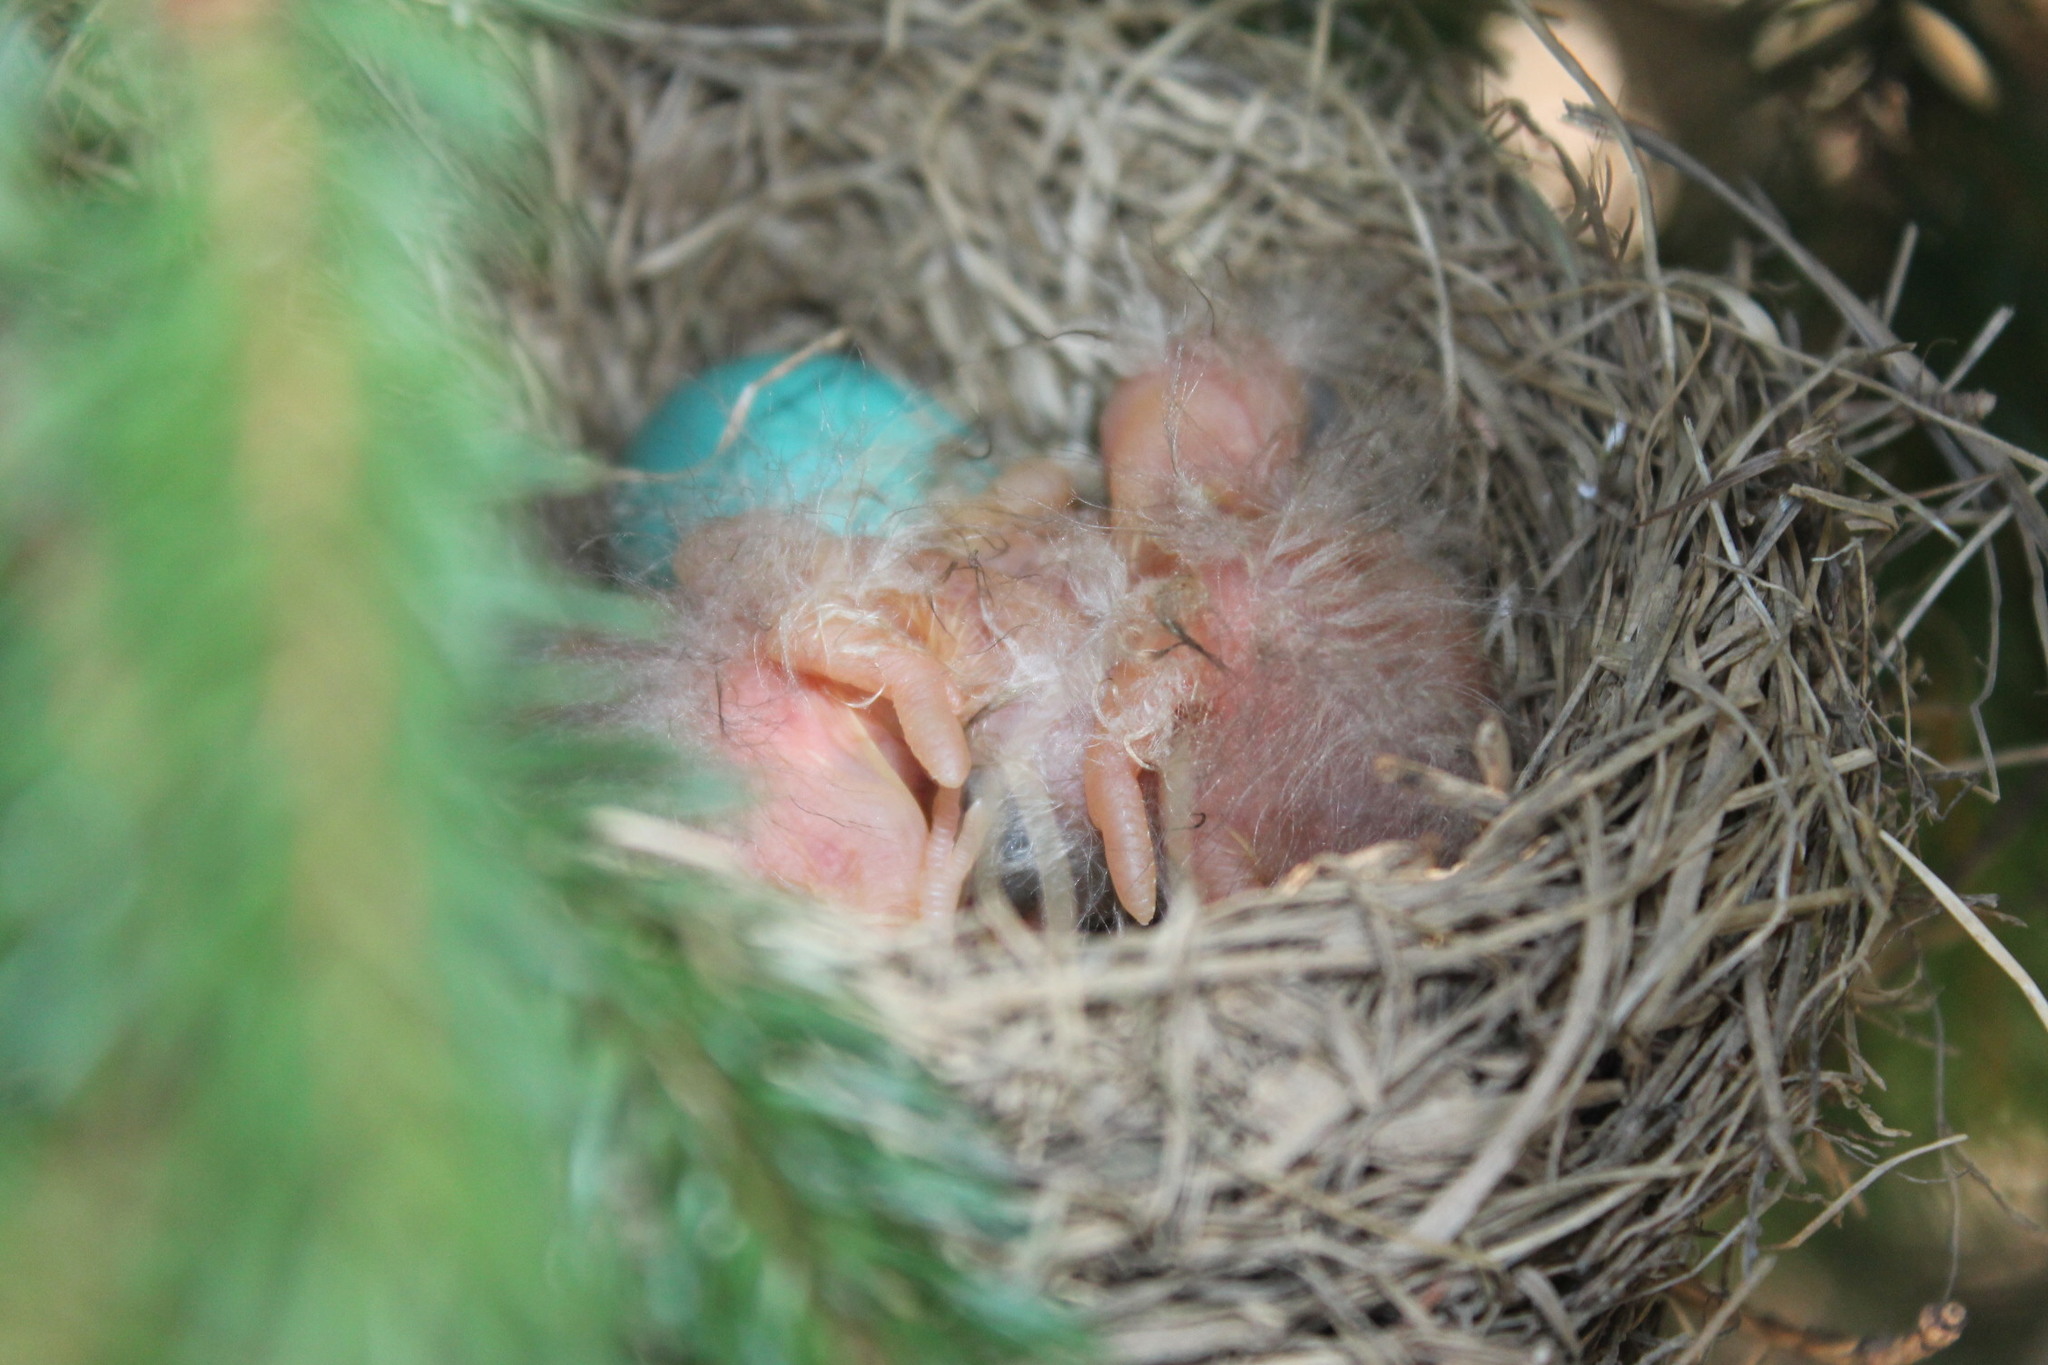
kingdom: Animalia
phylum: Chordata
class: Aves
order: Passeriformes
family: Turdidae
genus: Turdus
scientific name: Turdus migratorius
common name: American robin
